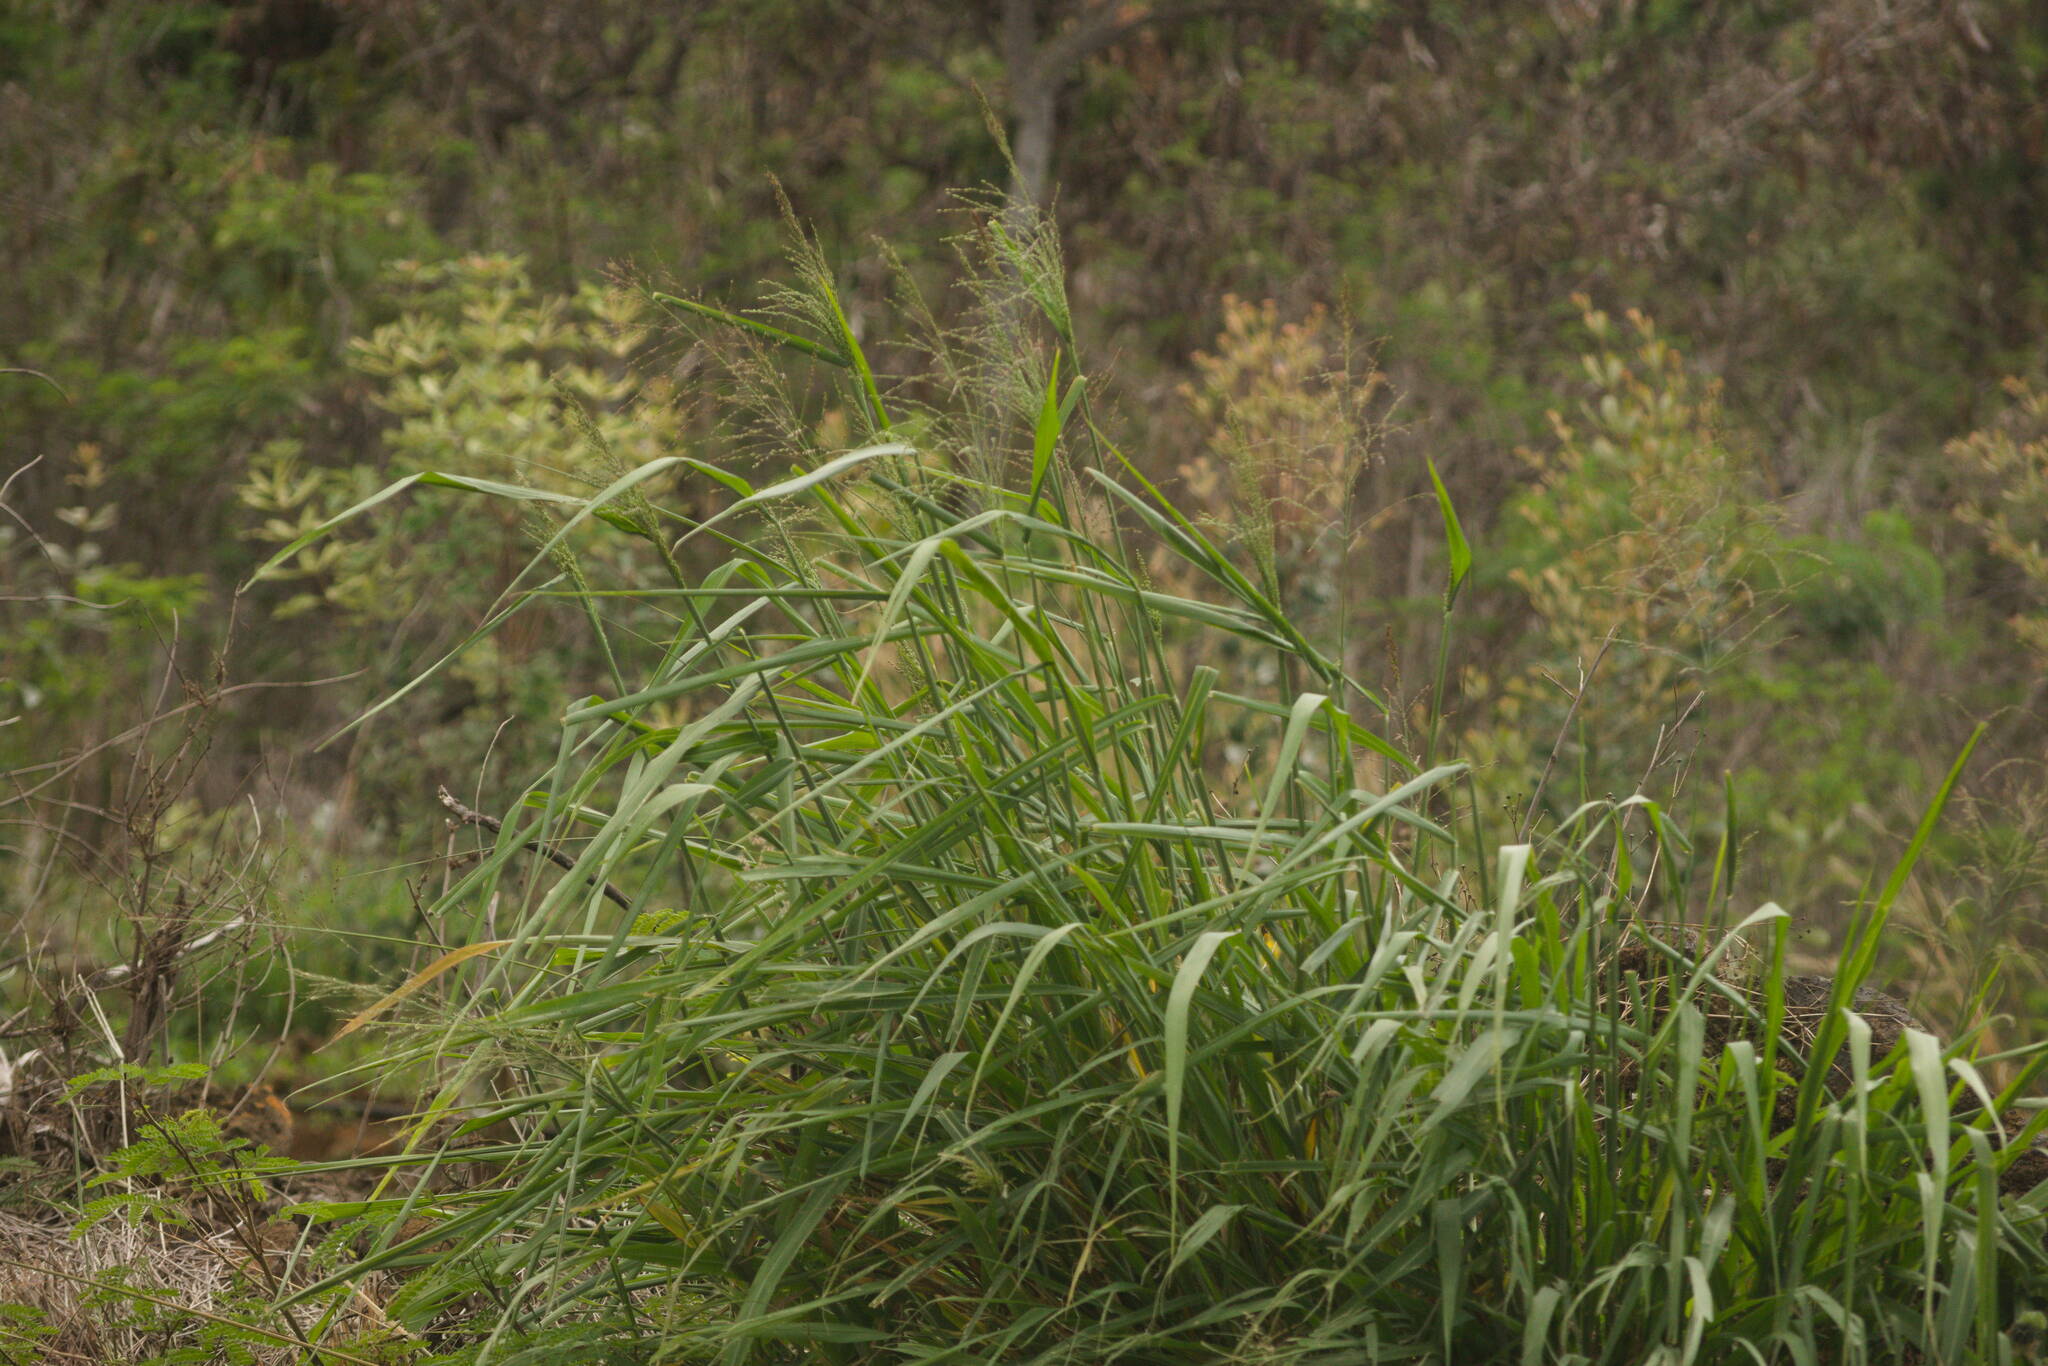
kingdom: Plantae
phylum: Tracheophyta
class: Liliopsida
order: Poales
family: Poaceae
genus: Megathyrsus
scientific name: Megathyrsus maximus
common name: Guineagrass
